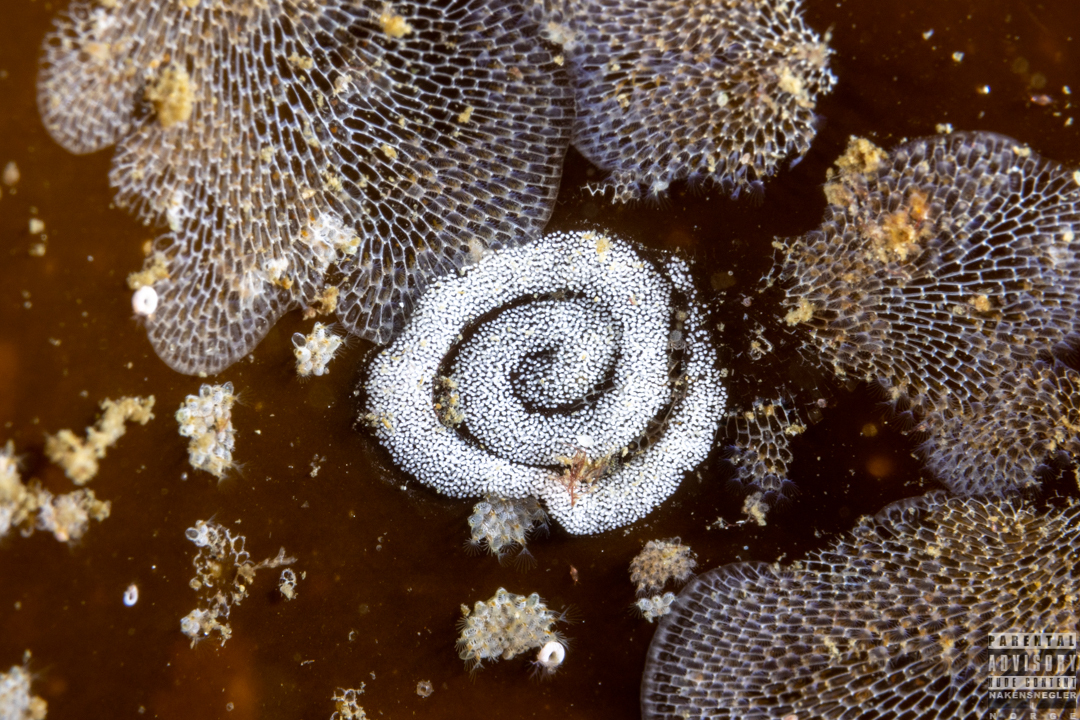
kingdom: Animalia
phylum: Mollusca
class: Gastropoda
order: Nudibranchia
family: Polyceridae
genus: Limacia
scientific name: Limacia clavigera
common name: Orange-clubbed sea slug
